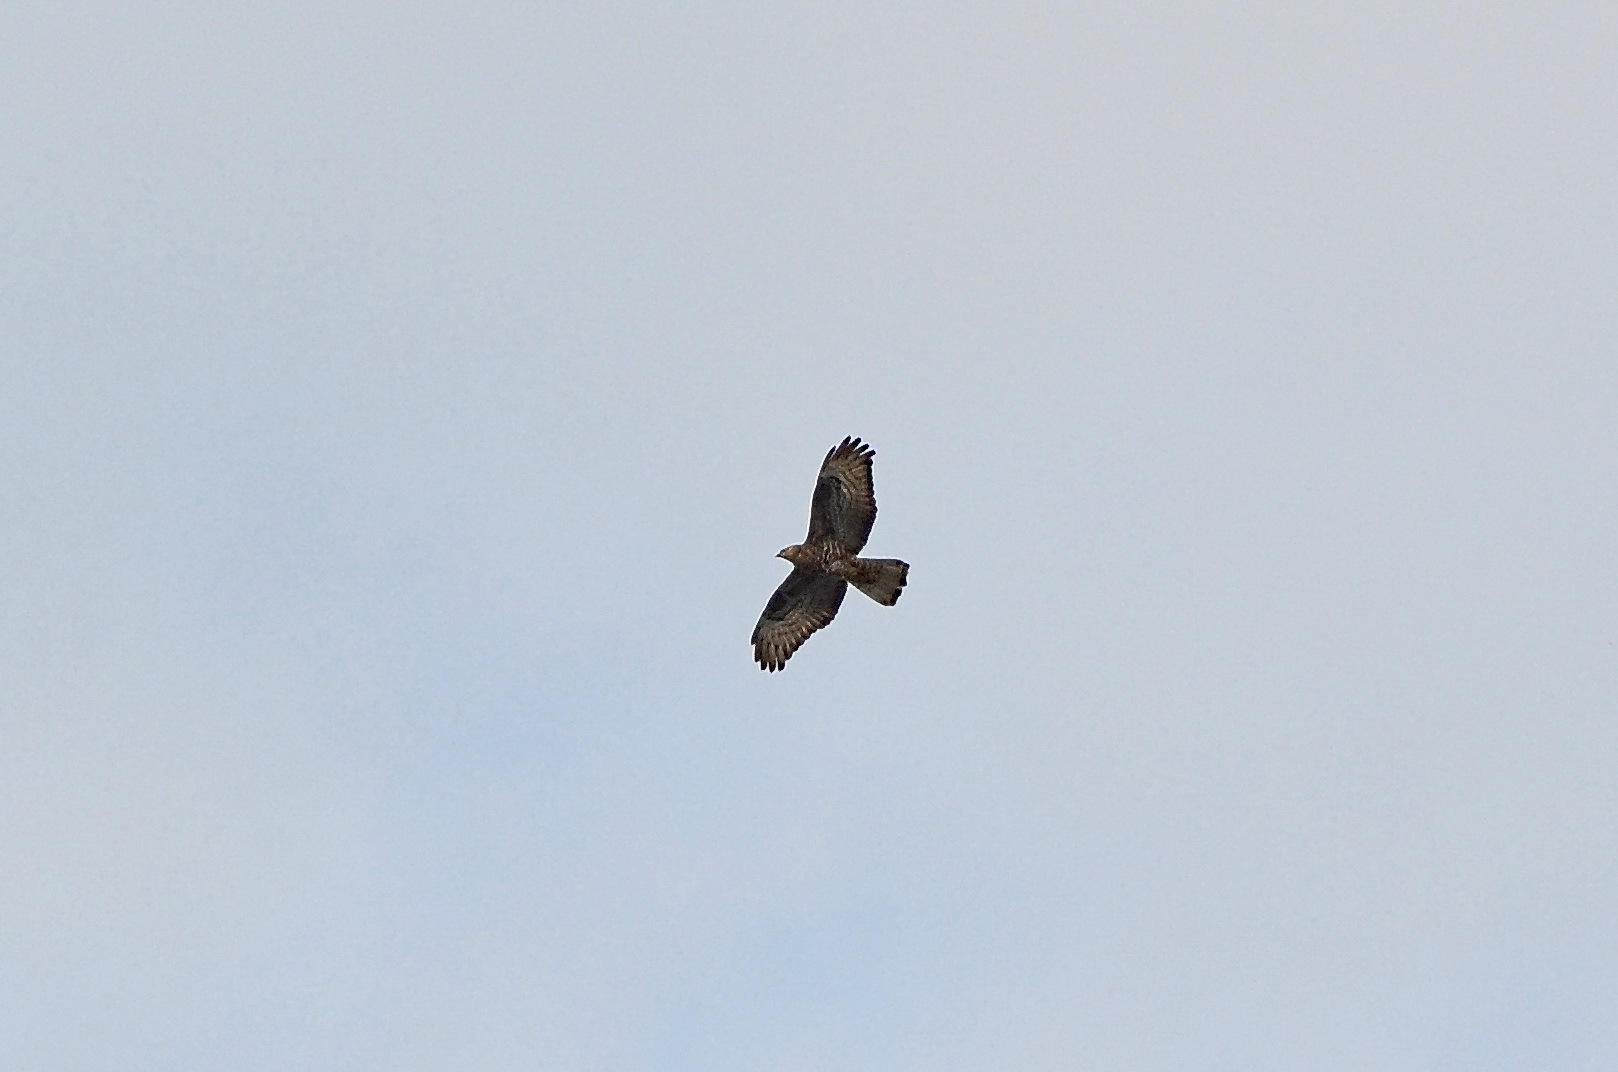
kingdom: Animalia
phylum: Chordata
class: Aves
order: Accipitriformes
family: Accipitridae
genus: Pernis
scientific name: Pernis apivorus
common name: European honey buzzard
